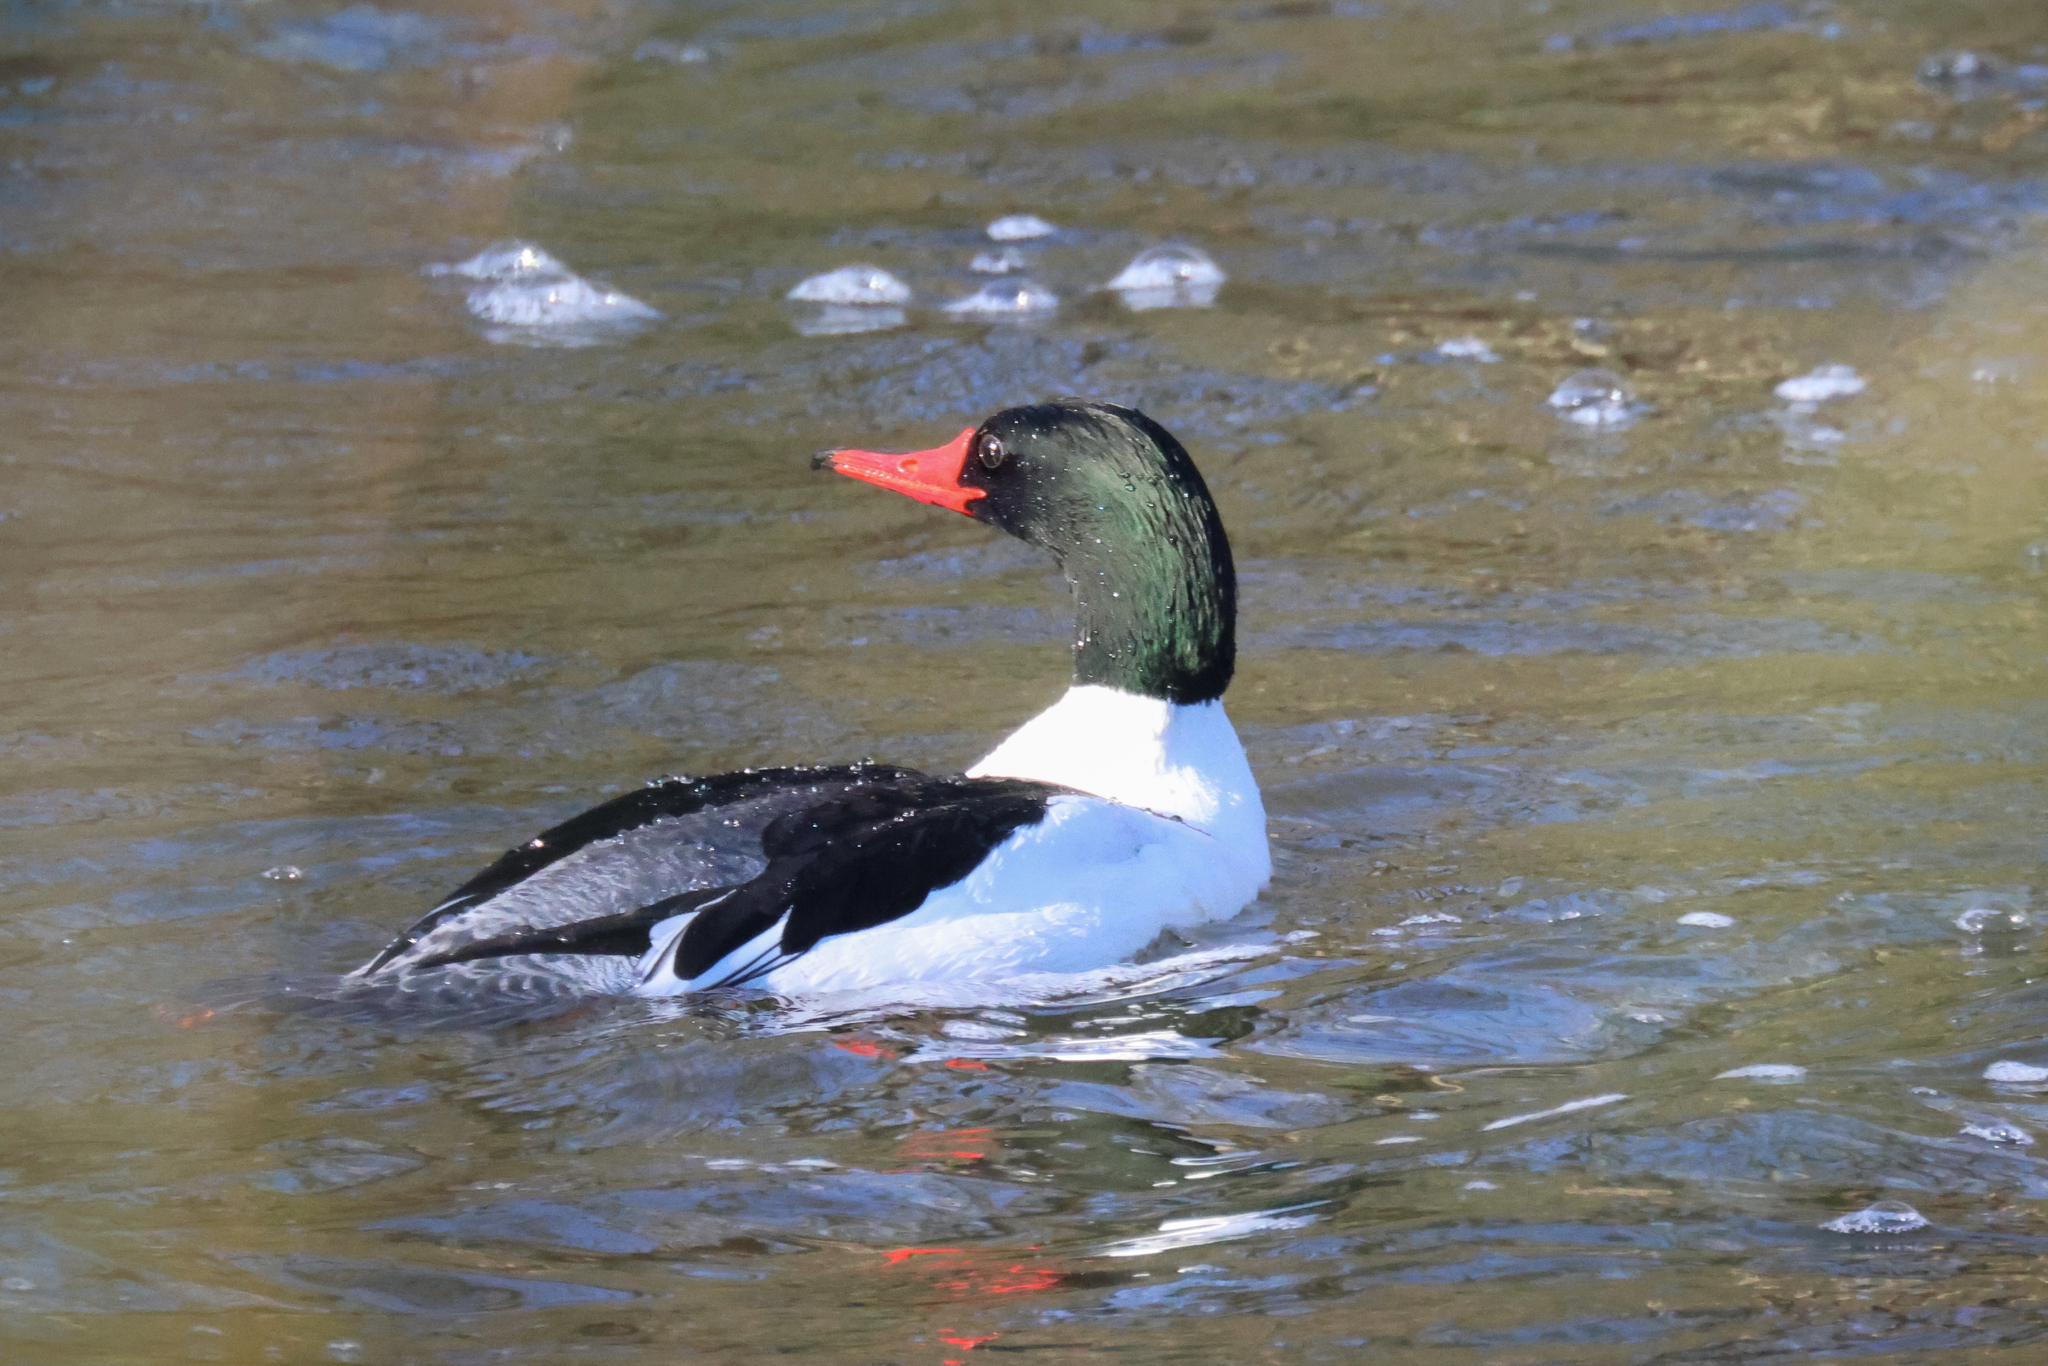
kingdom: Animalia
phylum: Chordata
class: Aves
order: Anseriformes
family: Anatidae
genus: Mergus
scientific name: Mergus merganser
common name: Common merganser
